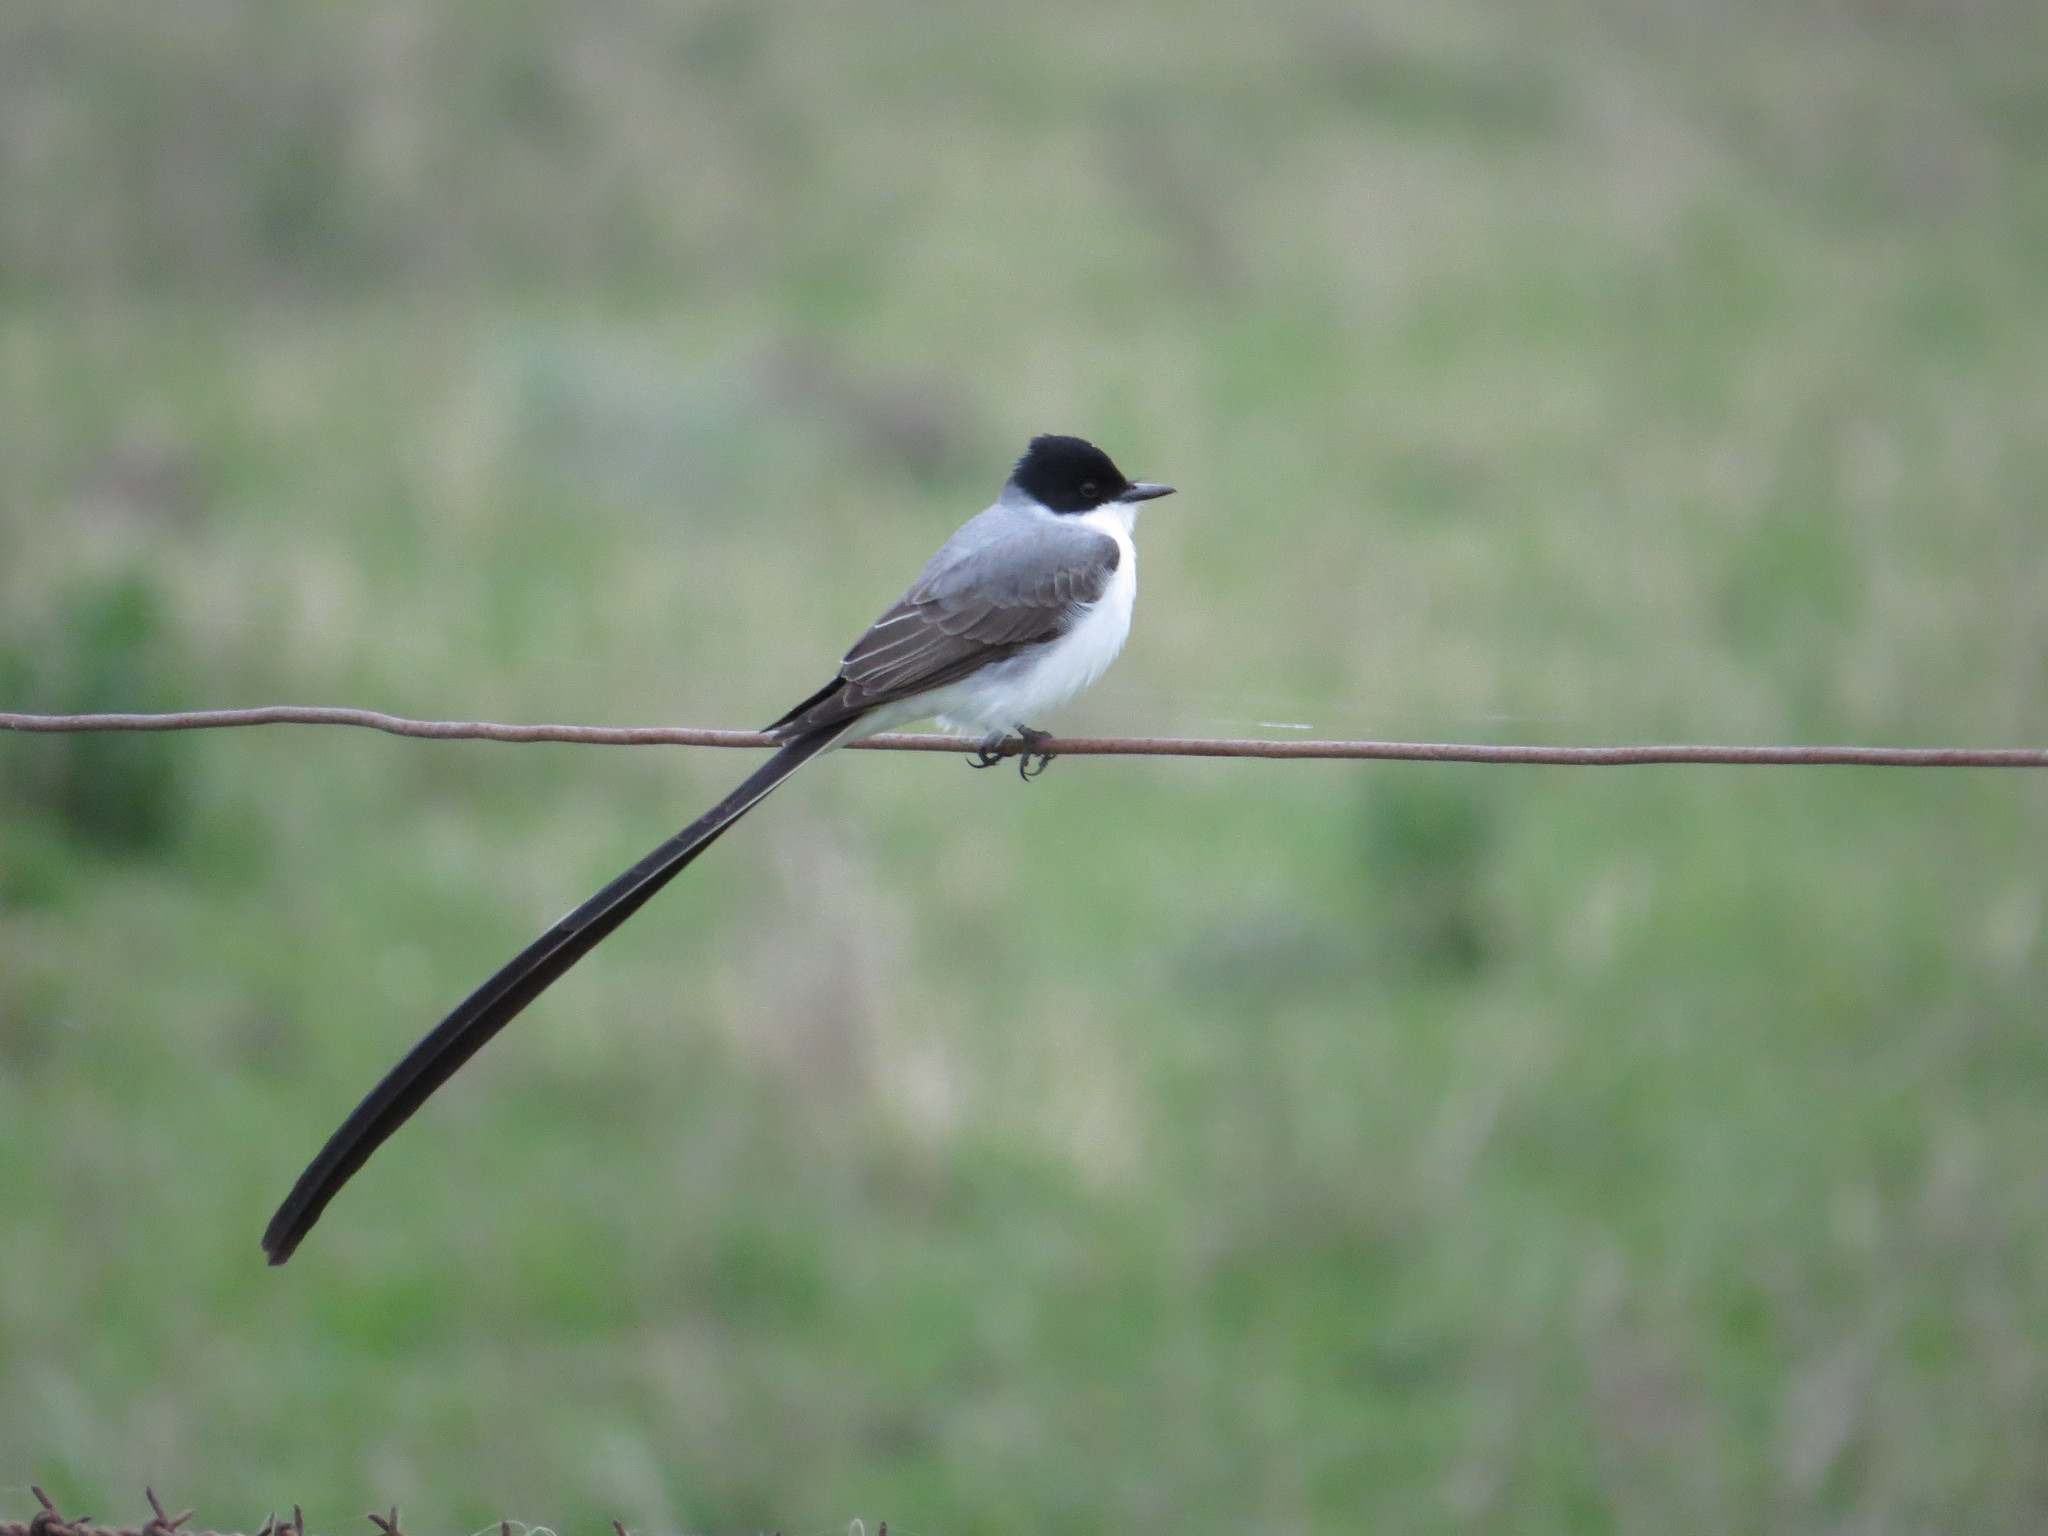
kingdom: Animalia
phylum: Chordata
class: Aves
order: Passeriformes
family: Tyrannidae
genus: Tyrannus
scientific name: Tyrannus savana
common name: Fork-tailed flycatcher
